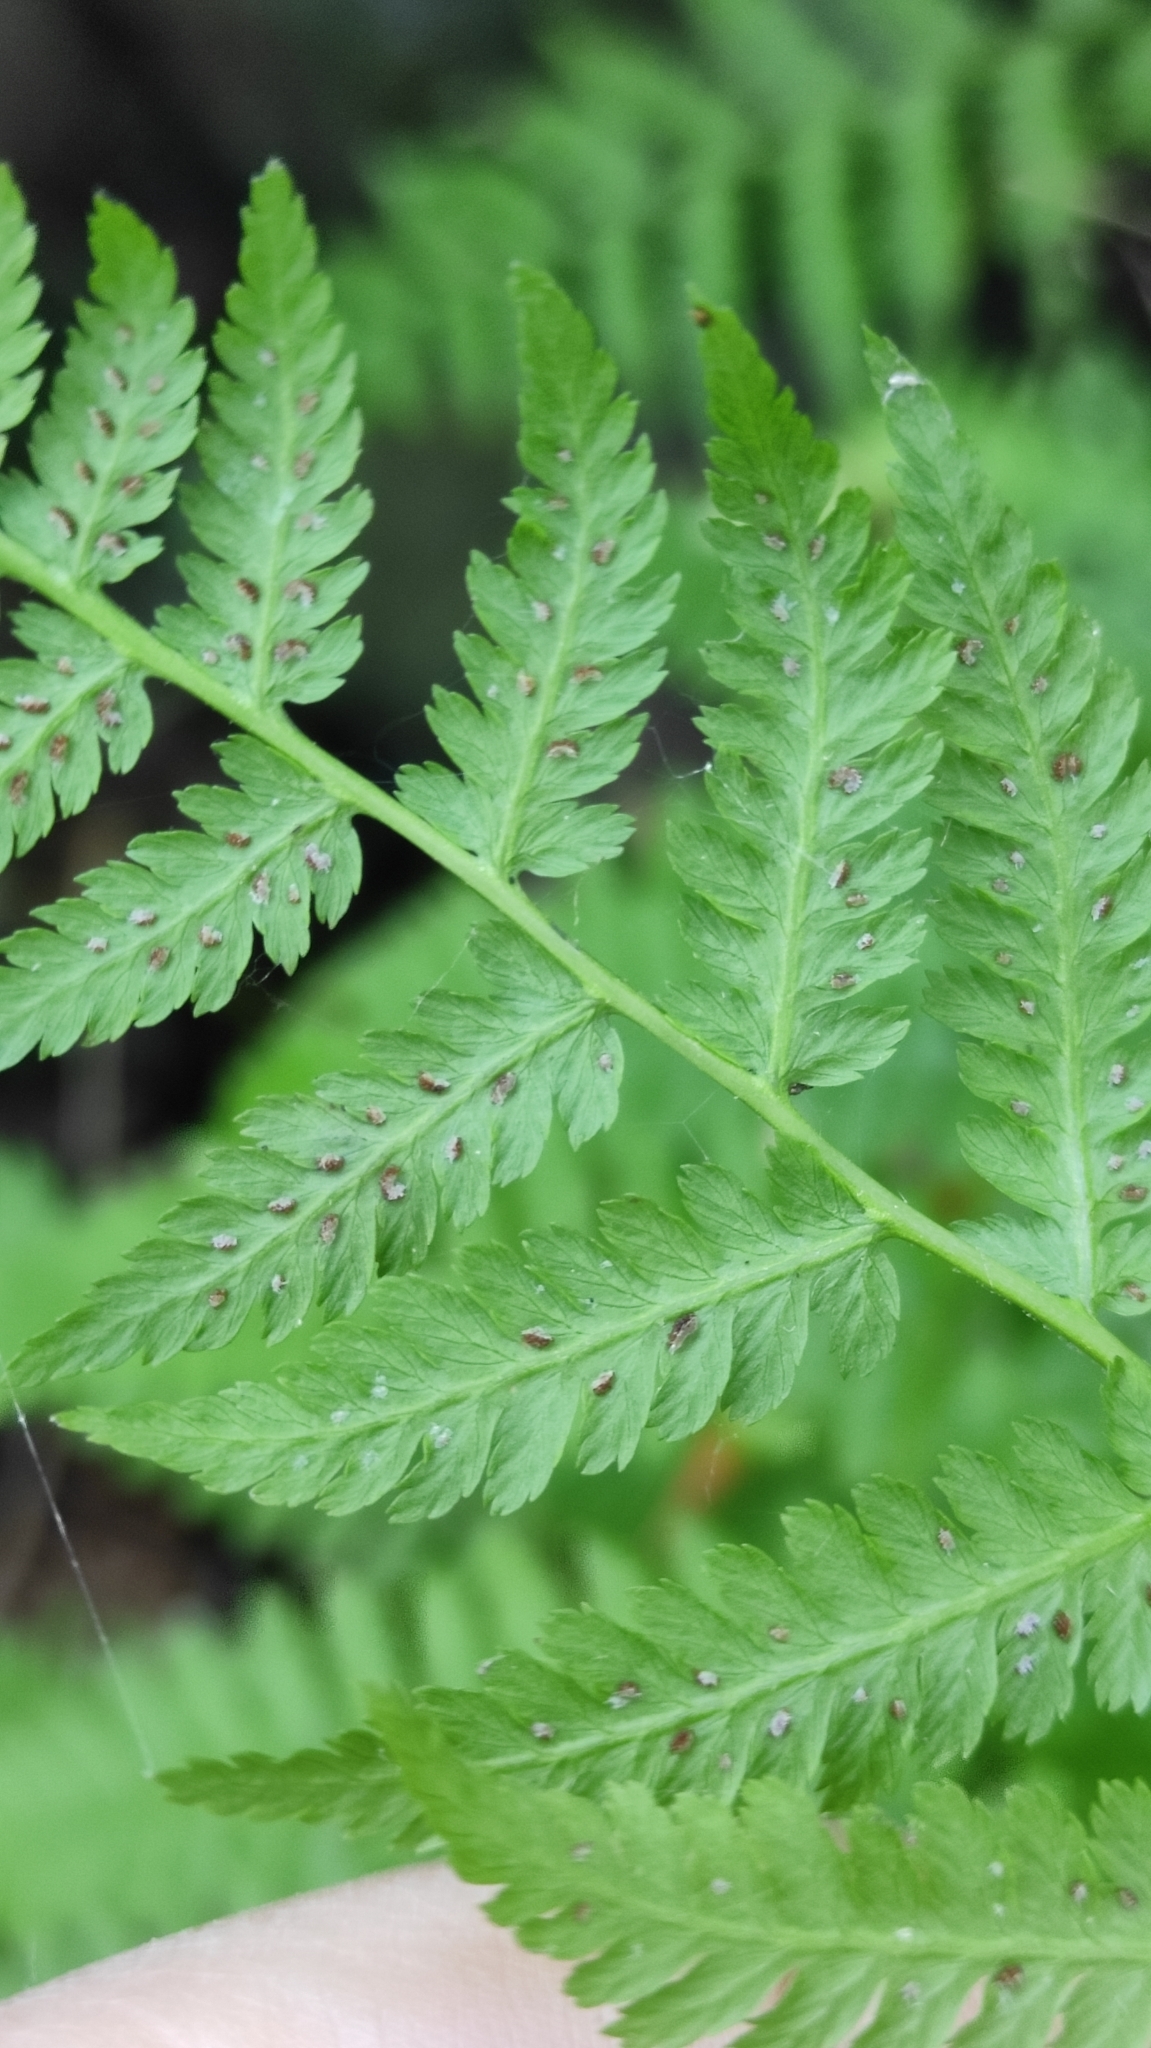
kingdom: Plantae
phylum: Tracheophyta
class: Polypodiopsida
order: Polypodiales
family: Athyriaceae
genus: Athyrium
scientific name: Athyrium filix-femina
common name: Lady fern
